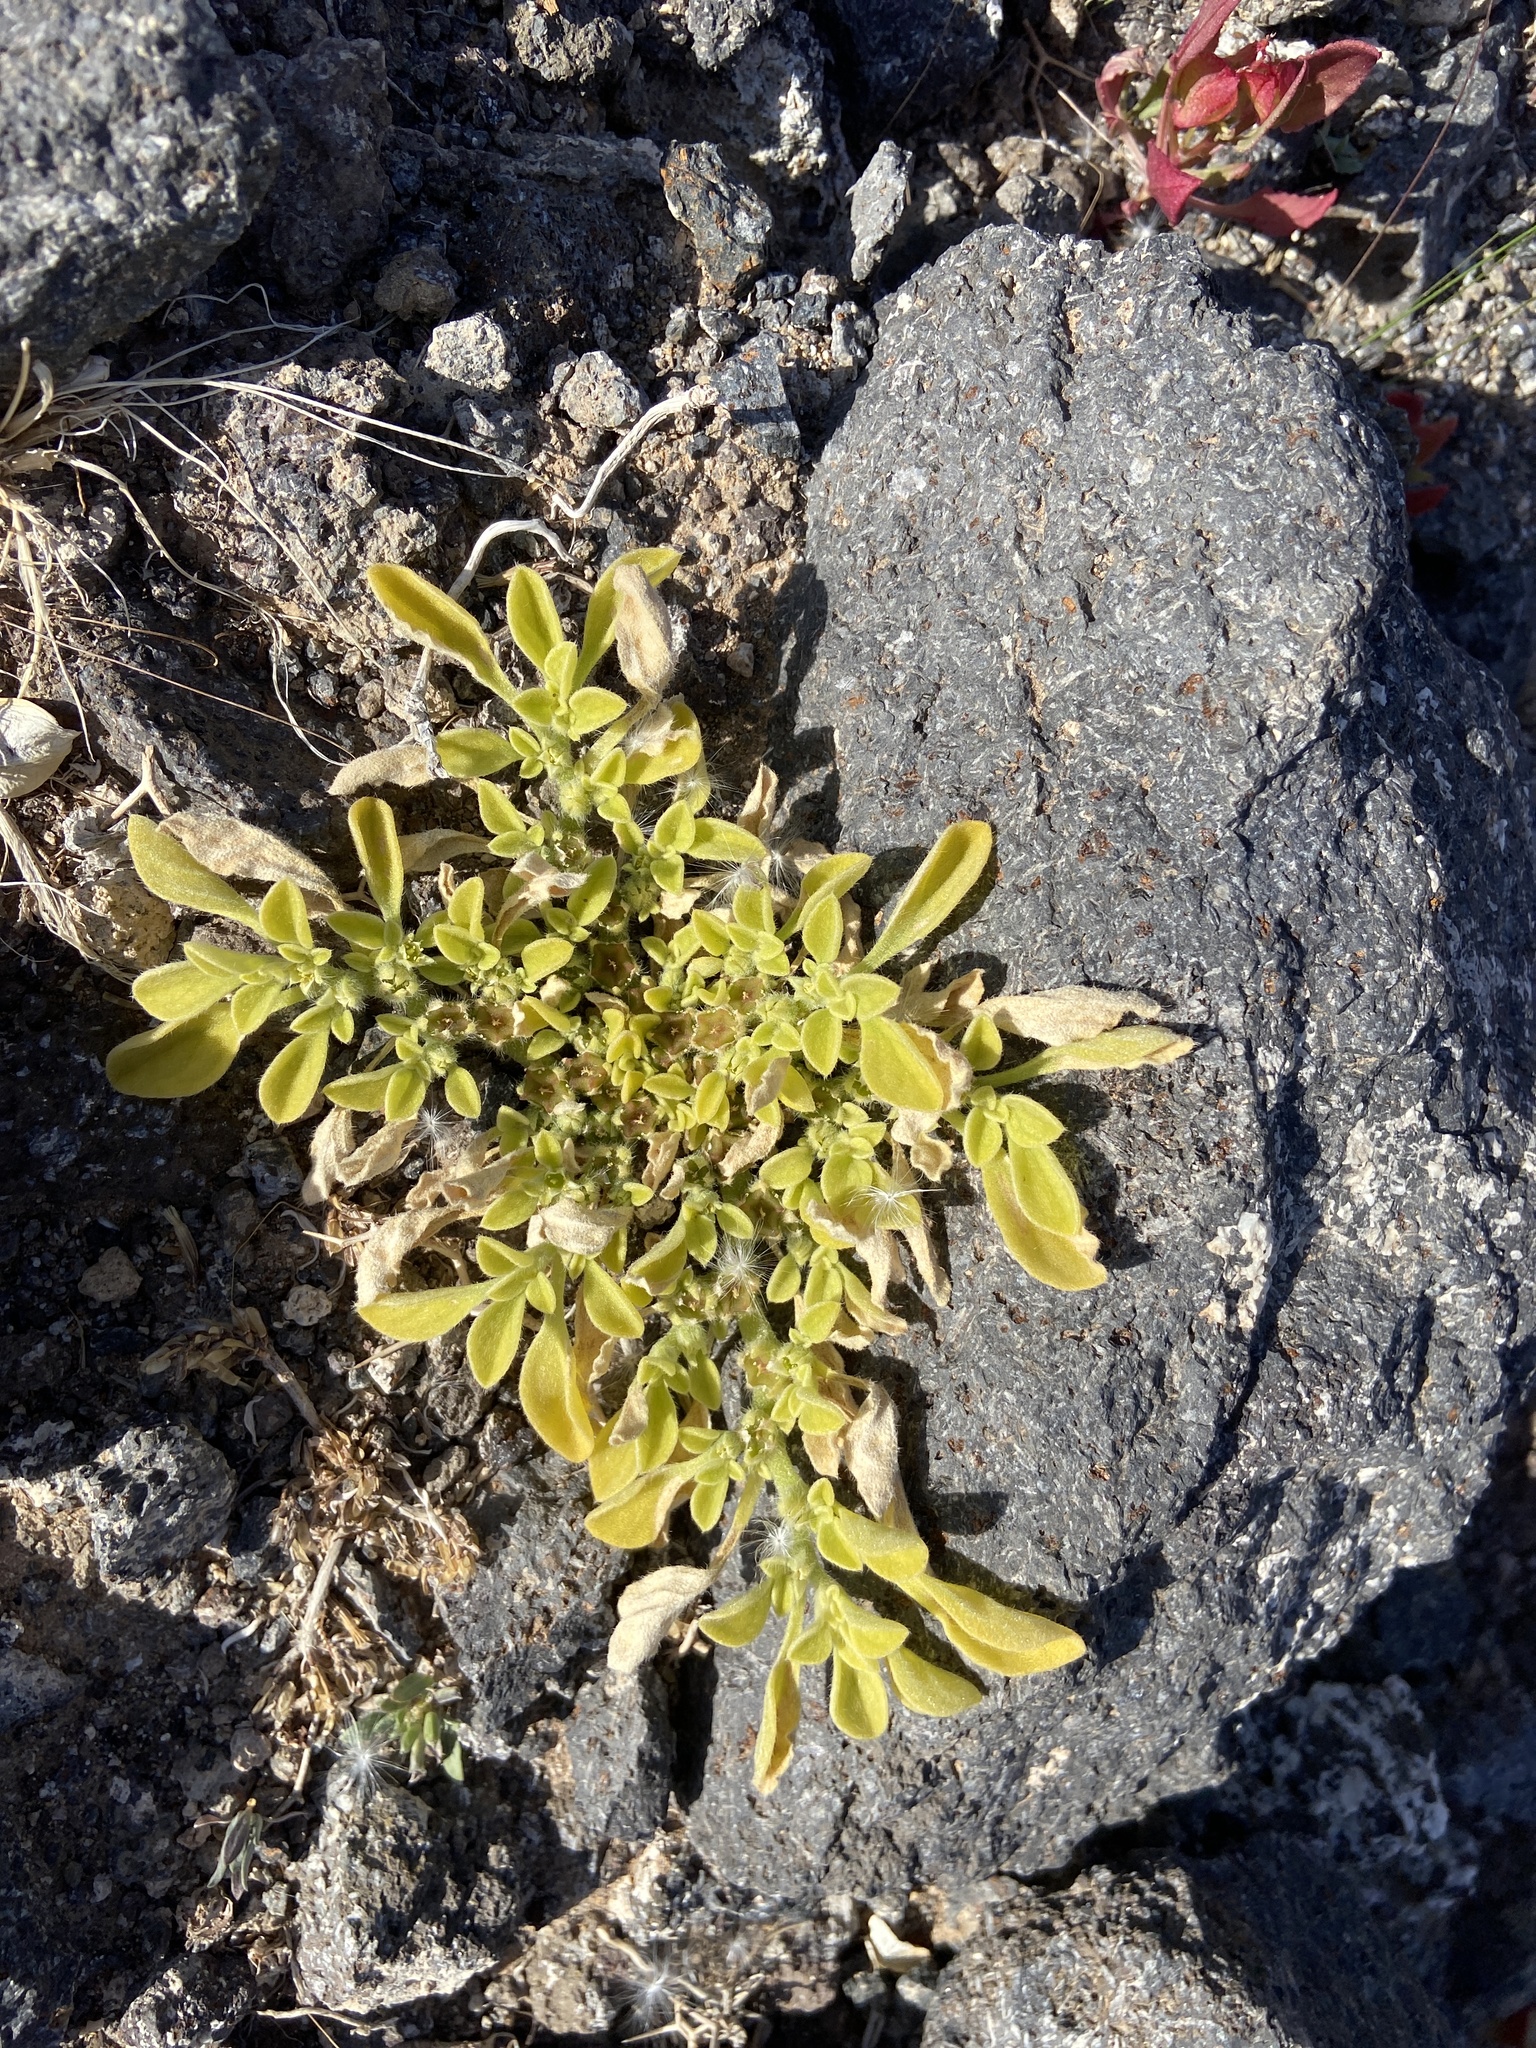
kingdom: Plantae
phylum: Tracheophyta
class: Magnoliopsida
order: Caryophyllales
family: Aizoaceae
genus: Aizoon
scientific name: Aizoon canariense
